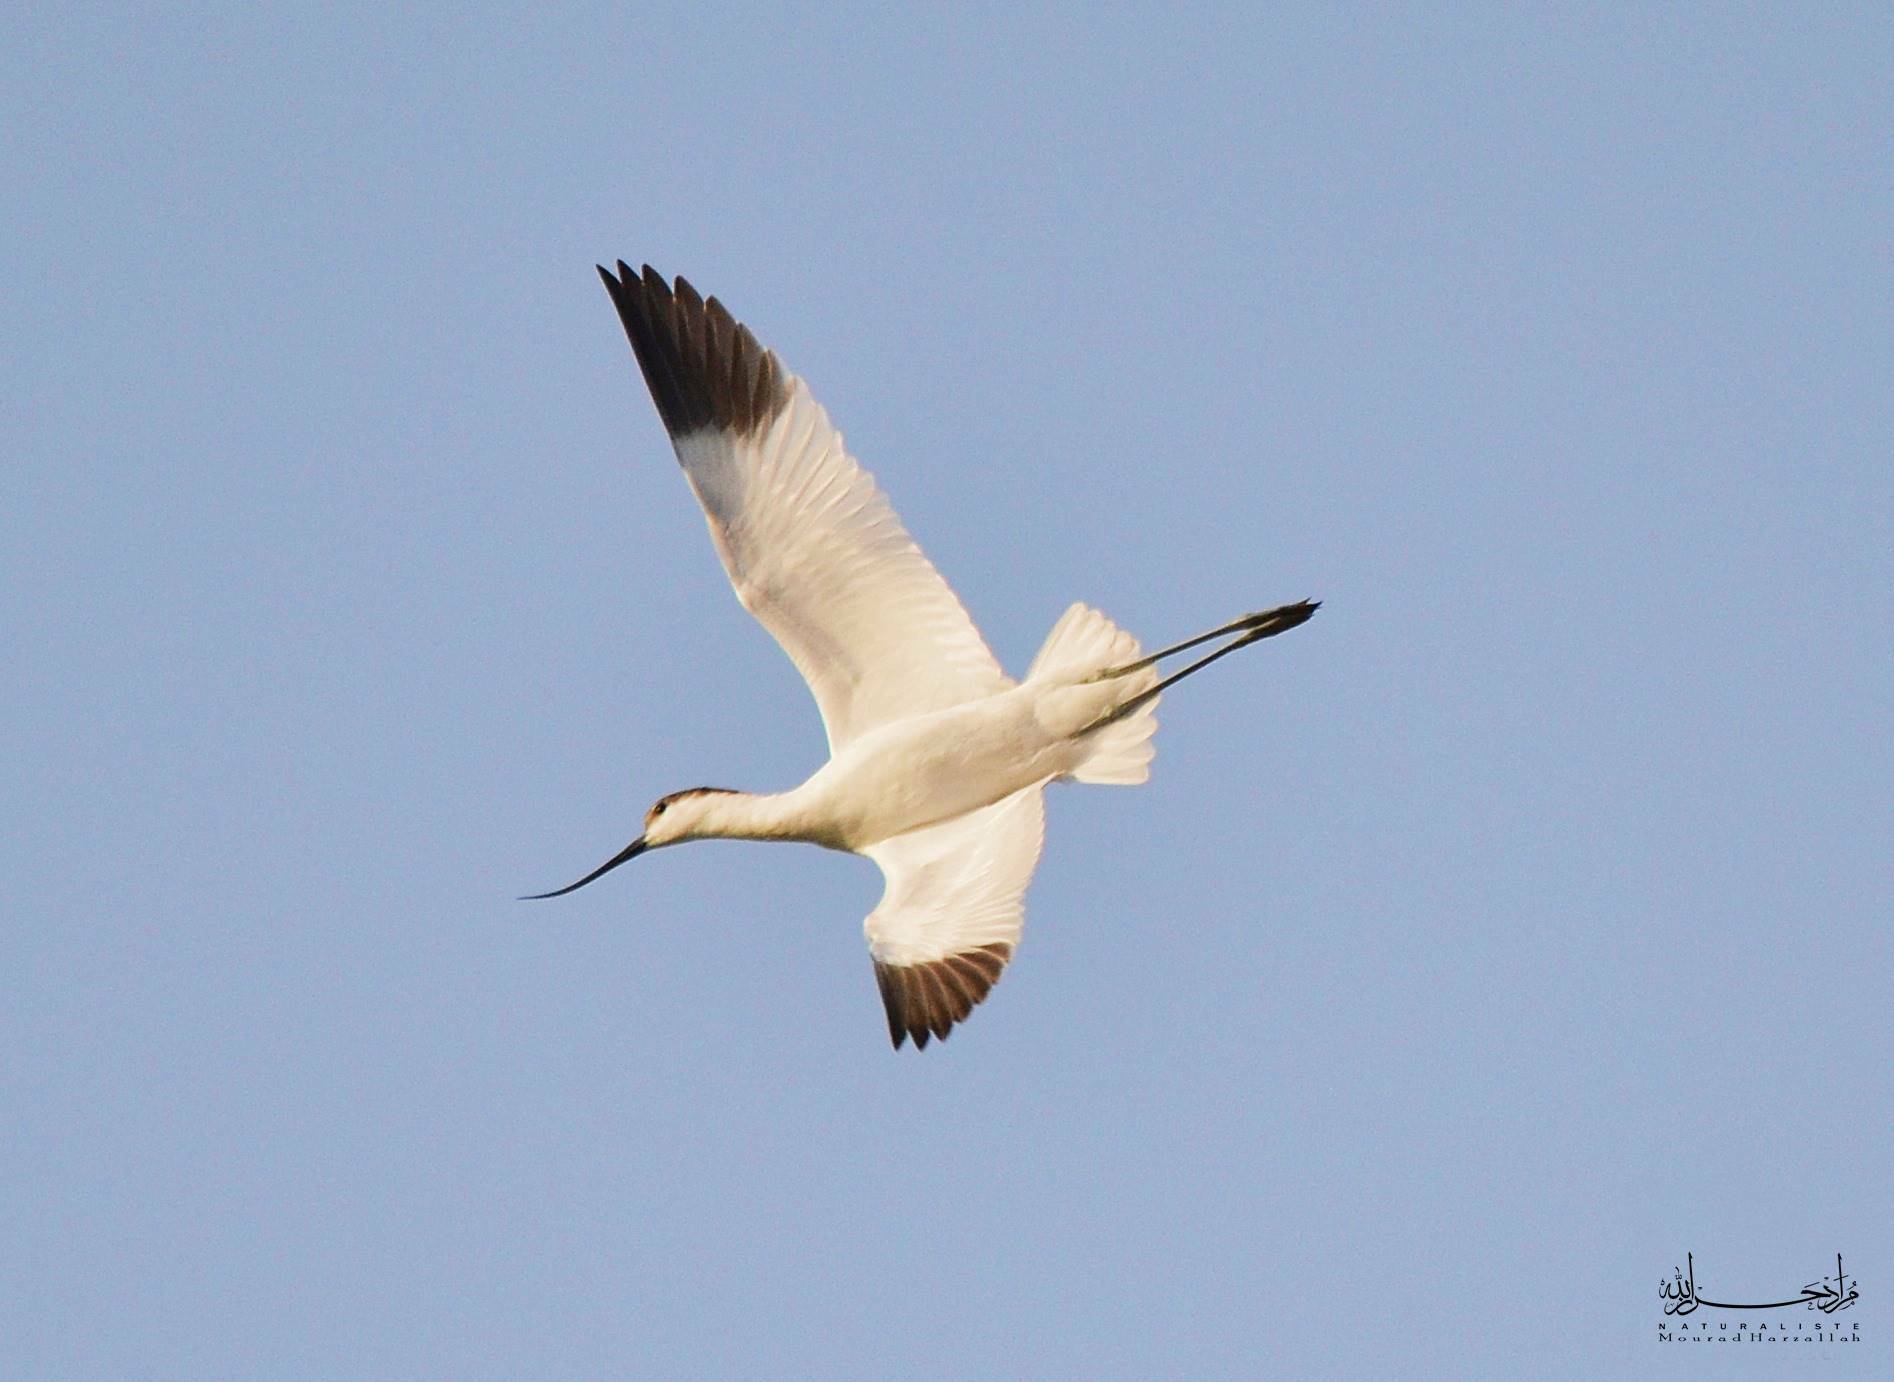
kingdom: Animalia
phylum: Chordata
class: Aves
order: Charadriiformes
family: Recurvirostridae
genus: Recurvirostra
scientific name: Recurvirostra avosetta
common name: Pied avocet
